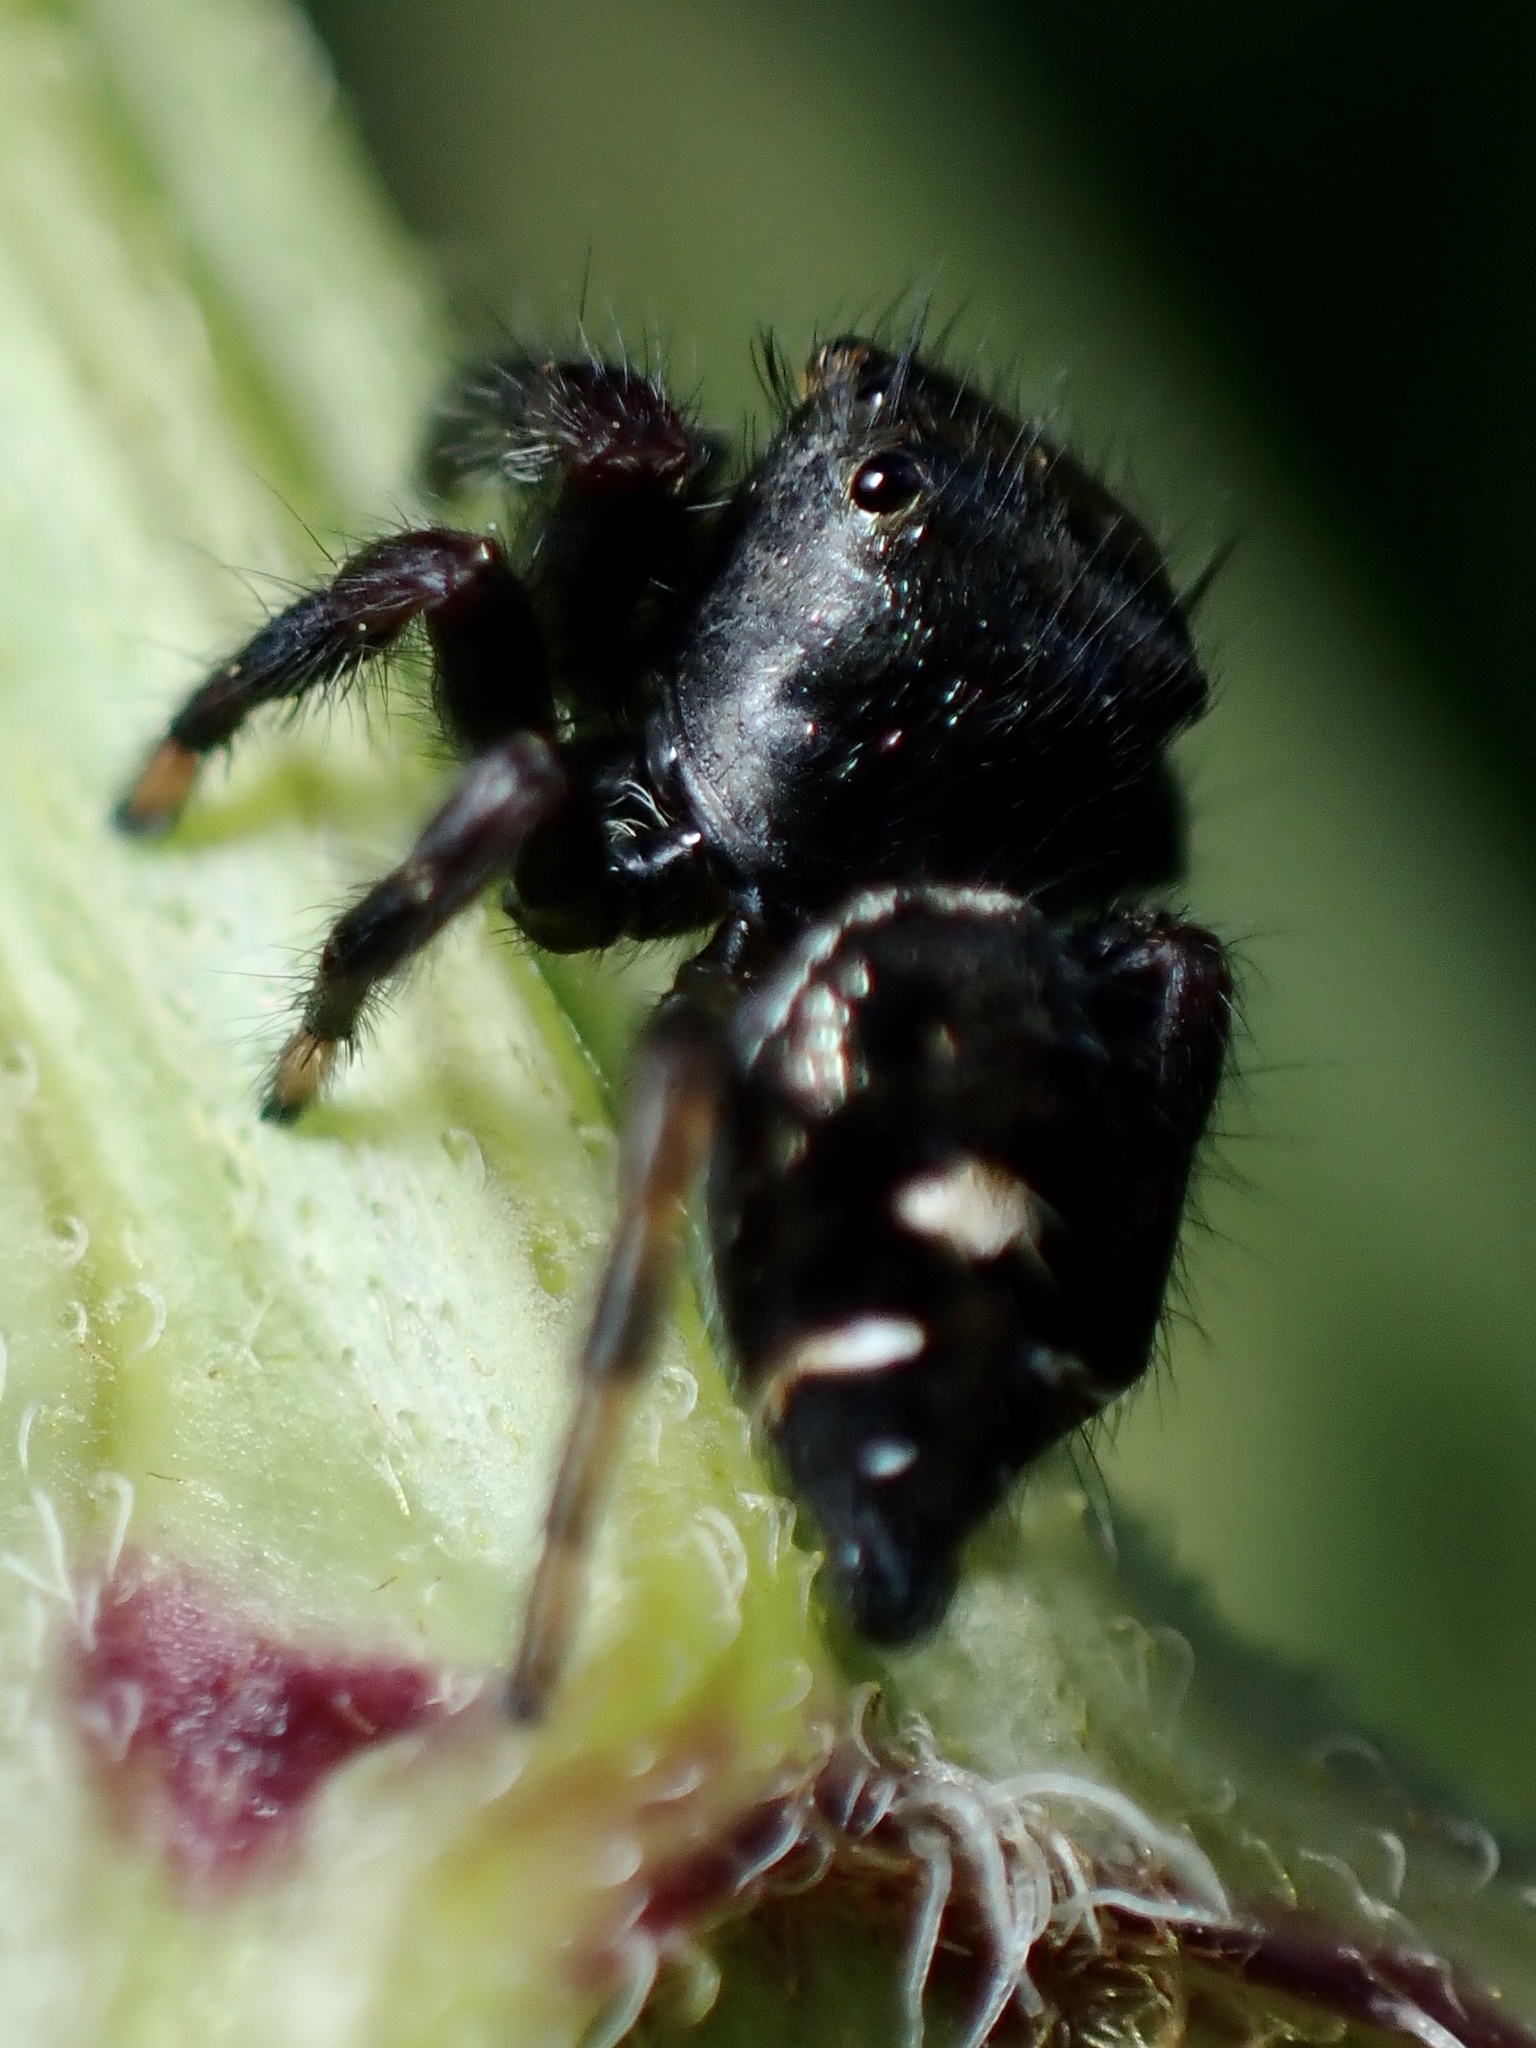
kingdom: Animalia
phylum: Arthropoda
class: Arachnida
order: Araneae
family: Salticidae
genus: Phidippus
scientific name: Phidippus audax
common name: Bold jumper
